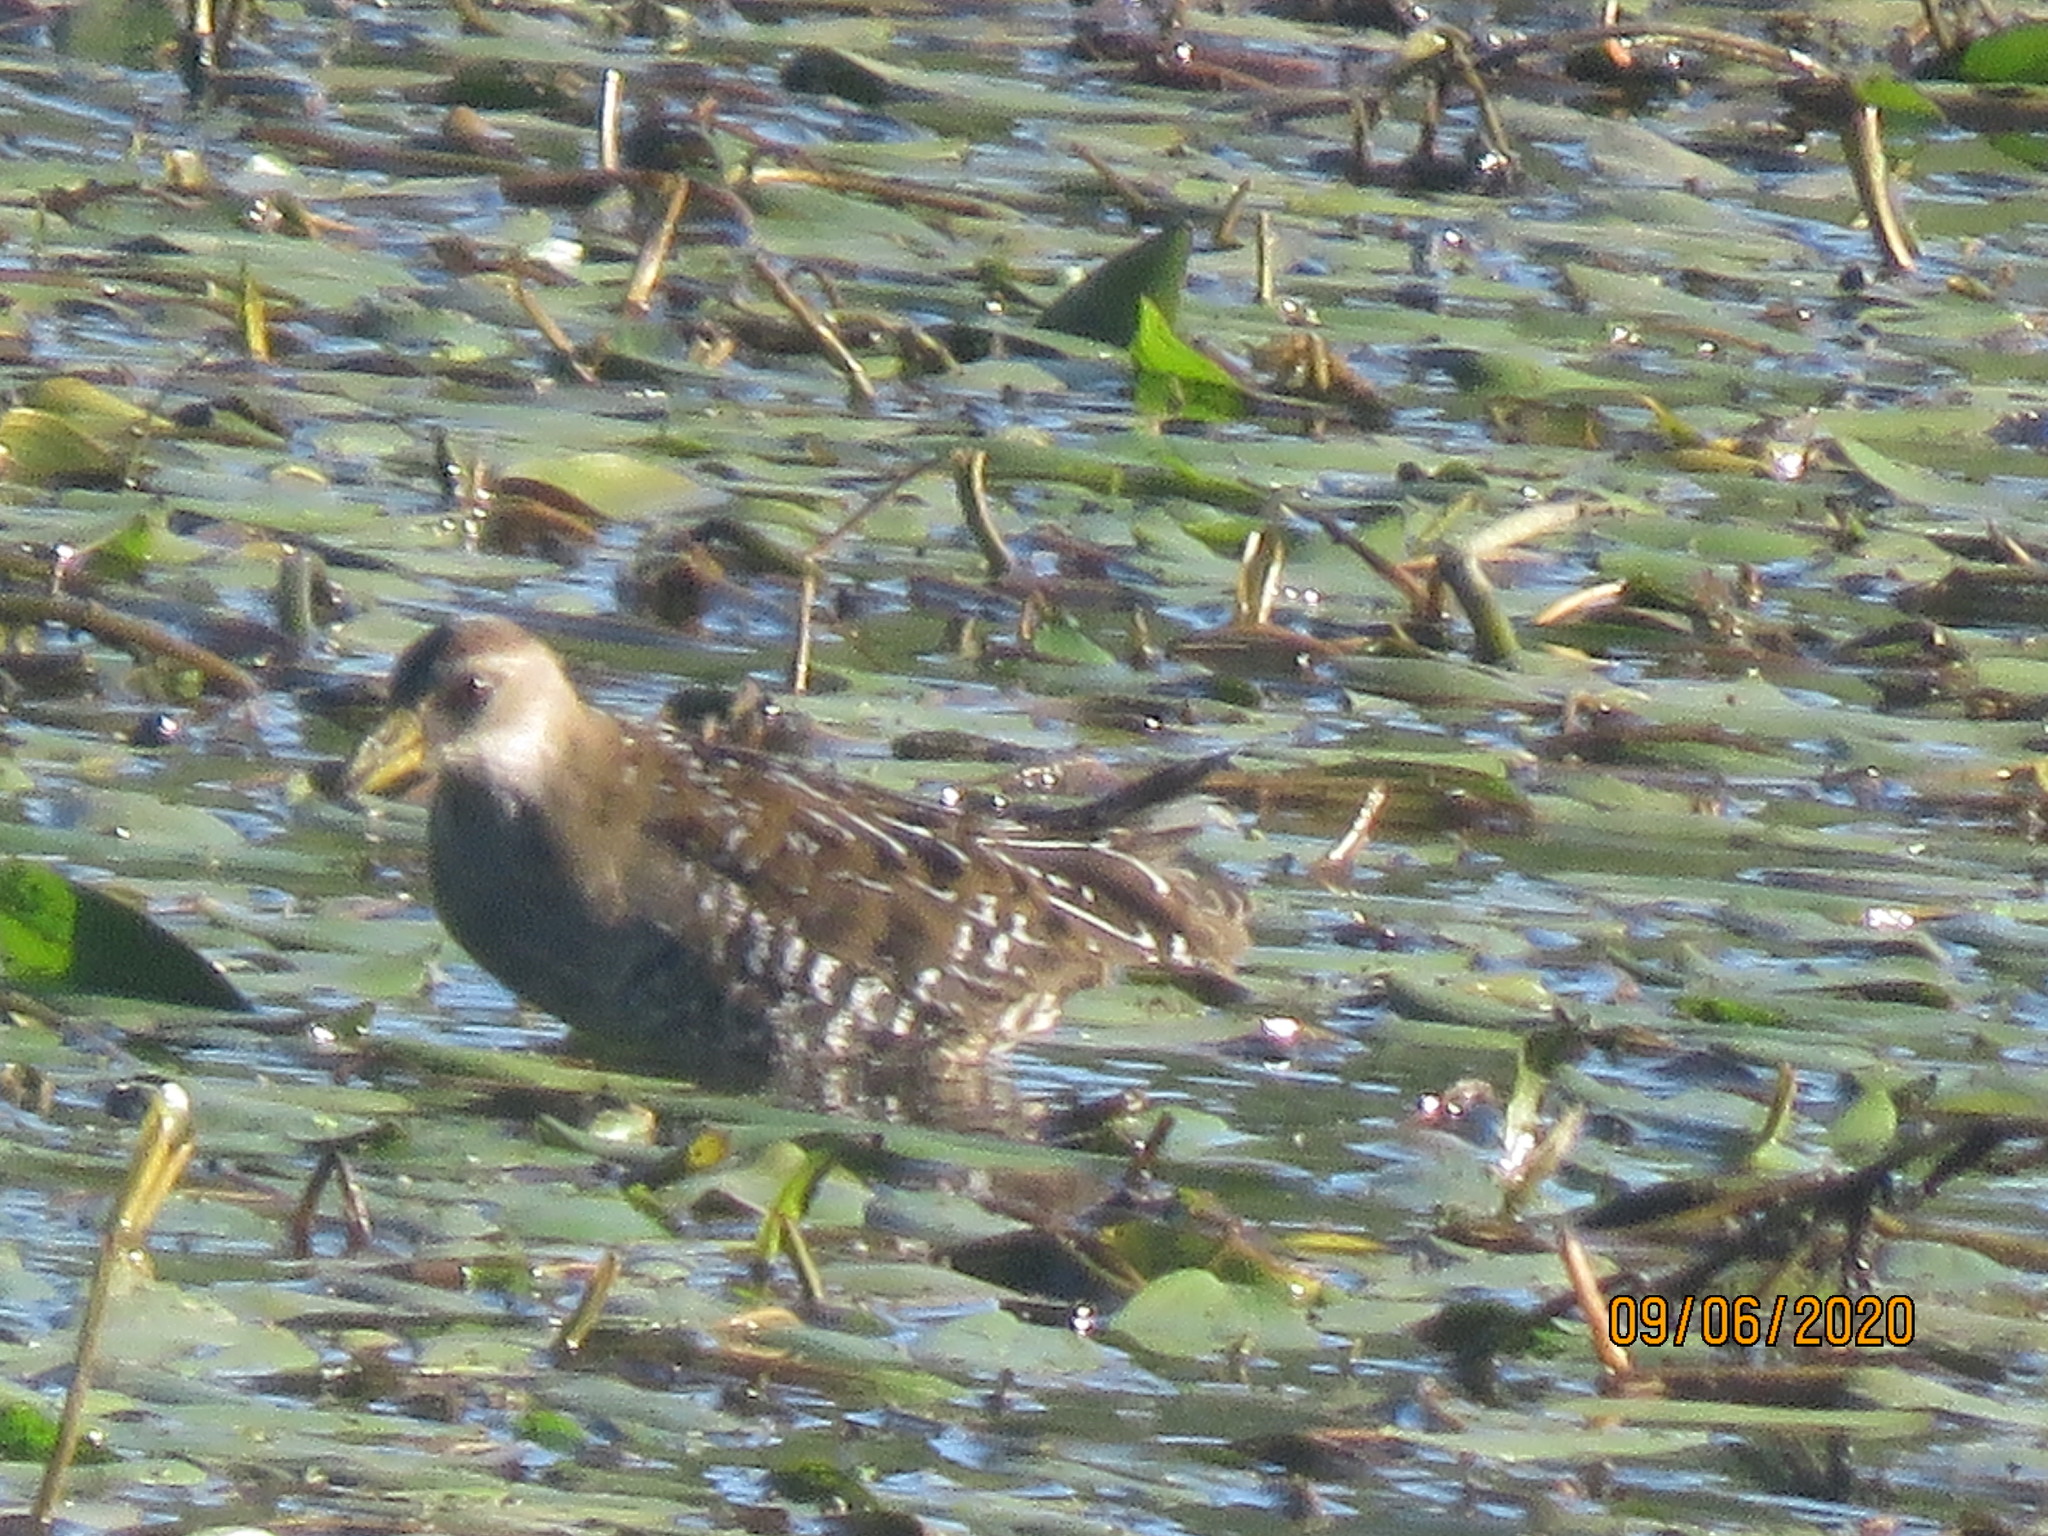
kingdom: Animalia
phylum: Chordata
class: Aves
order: Gruiformes
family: Rallidae
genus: Porzana
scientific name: Porzana carolina
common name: Sora
